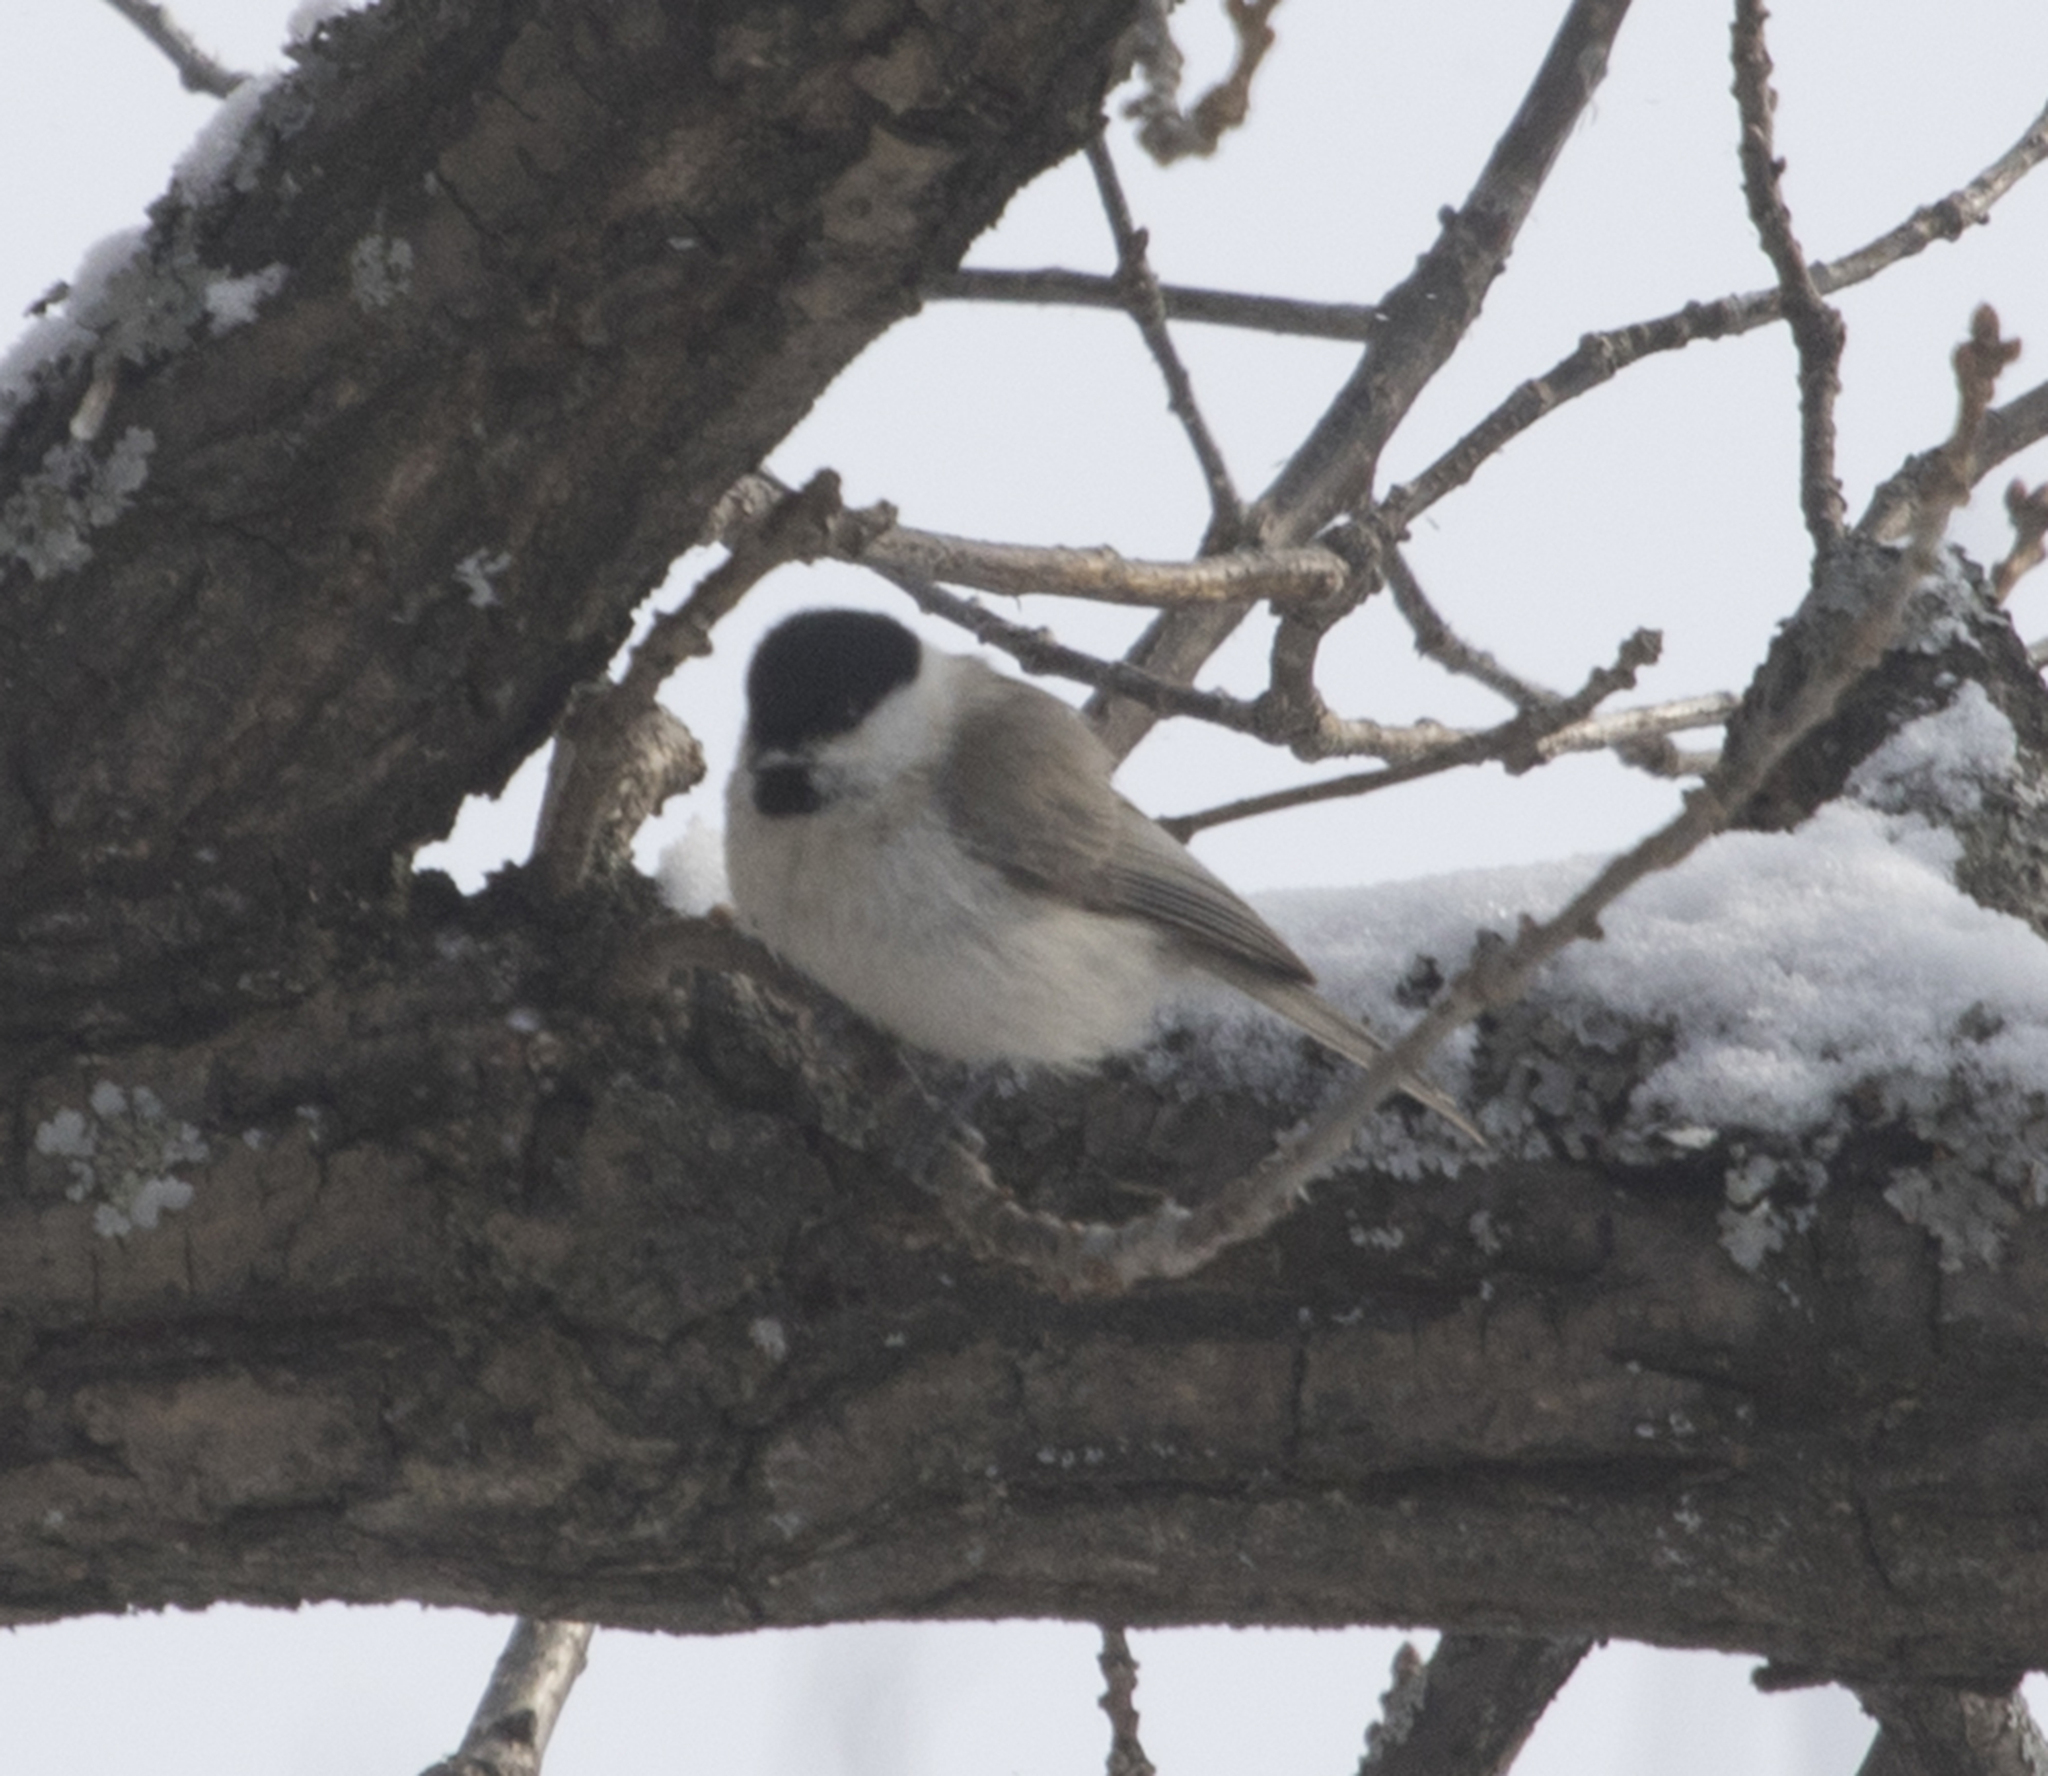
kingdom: Animalia
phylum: Chordata
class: Aves
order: Passeriformes
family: Paridae
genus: Poecile
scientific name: Poecile palustris
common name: Marsh tit
